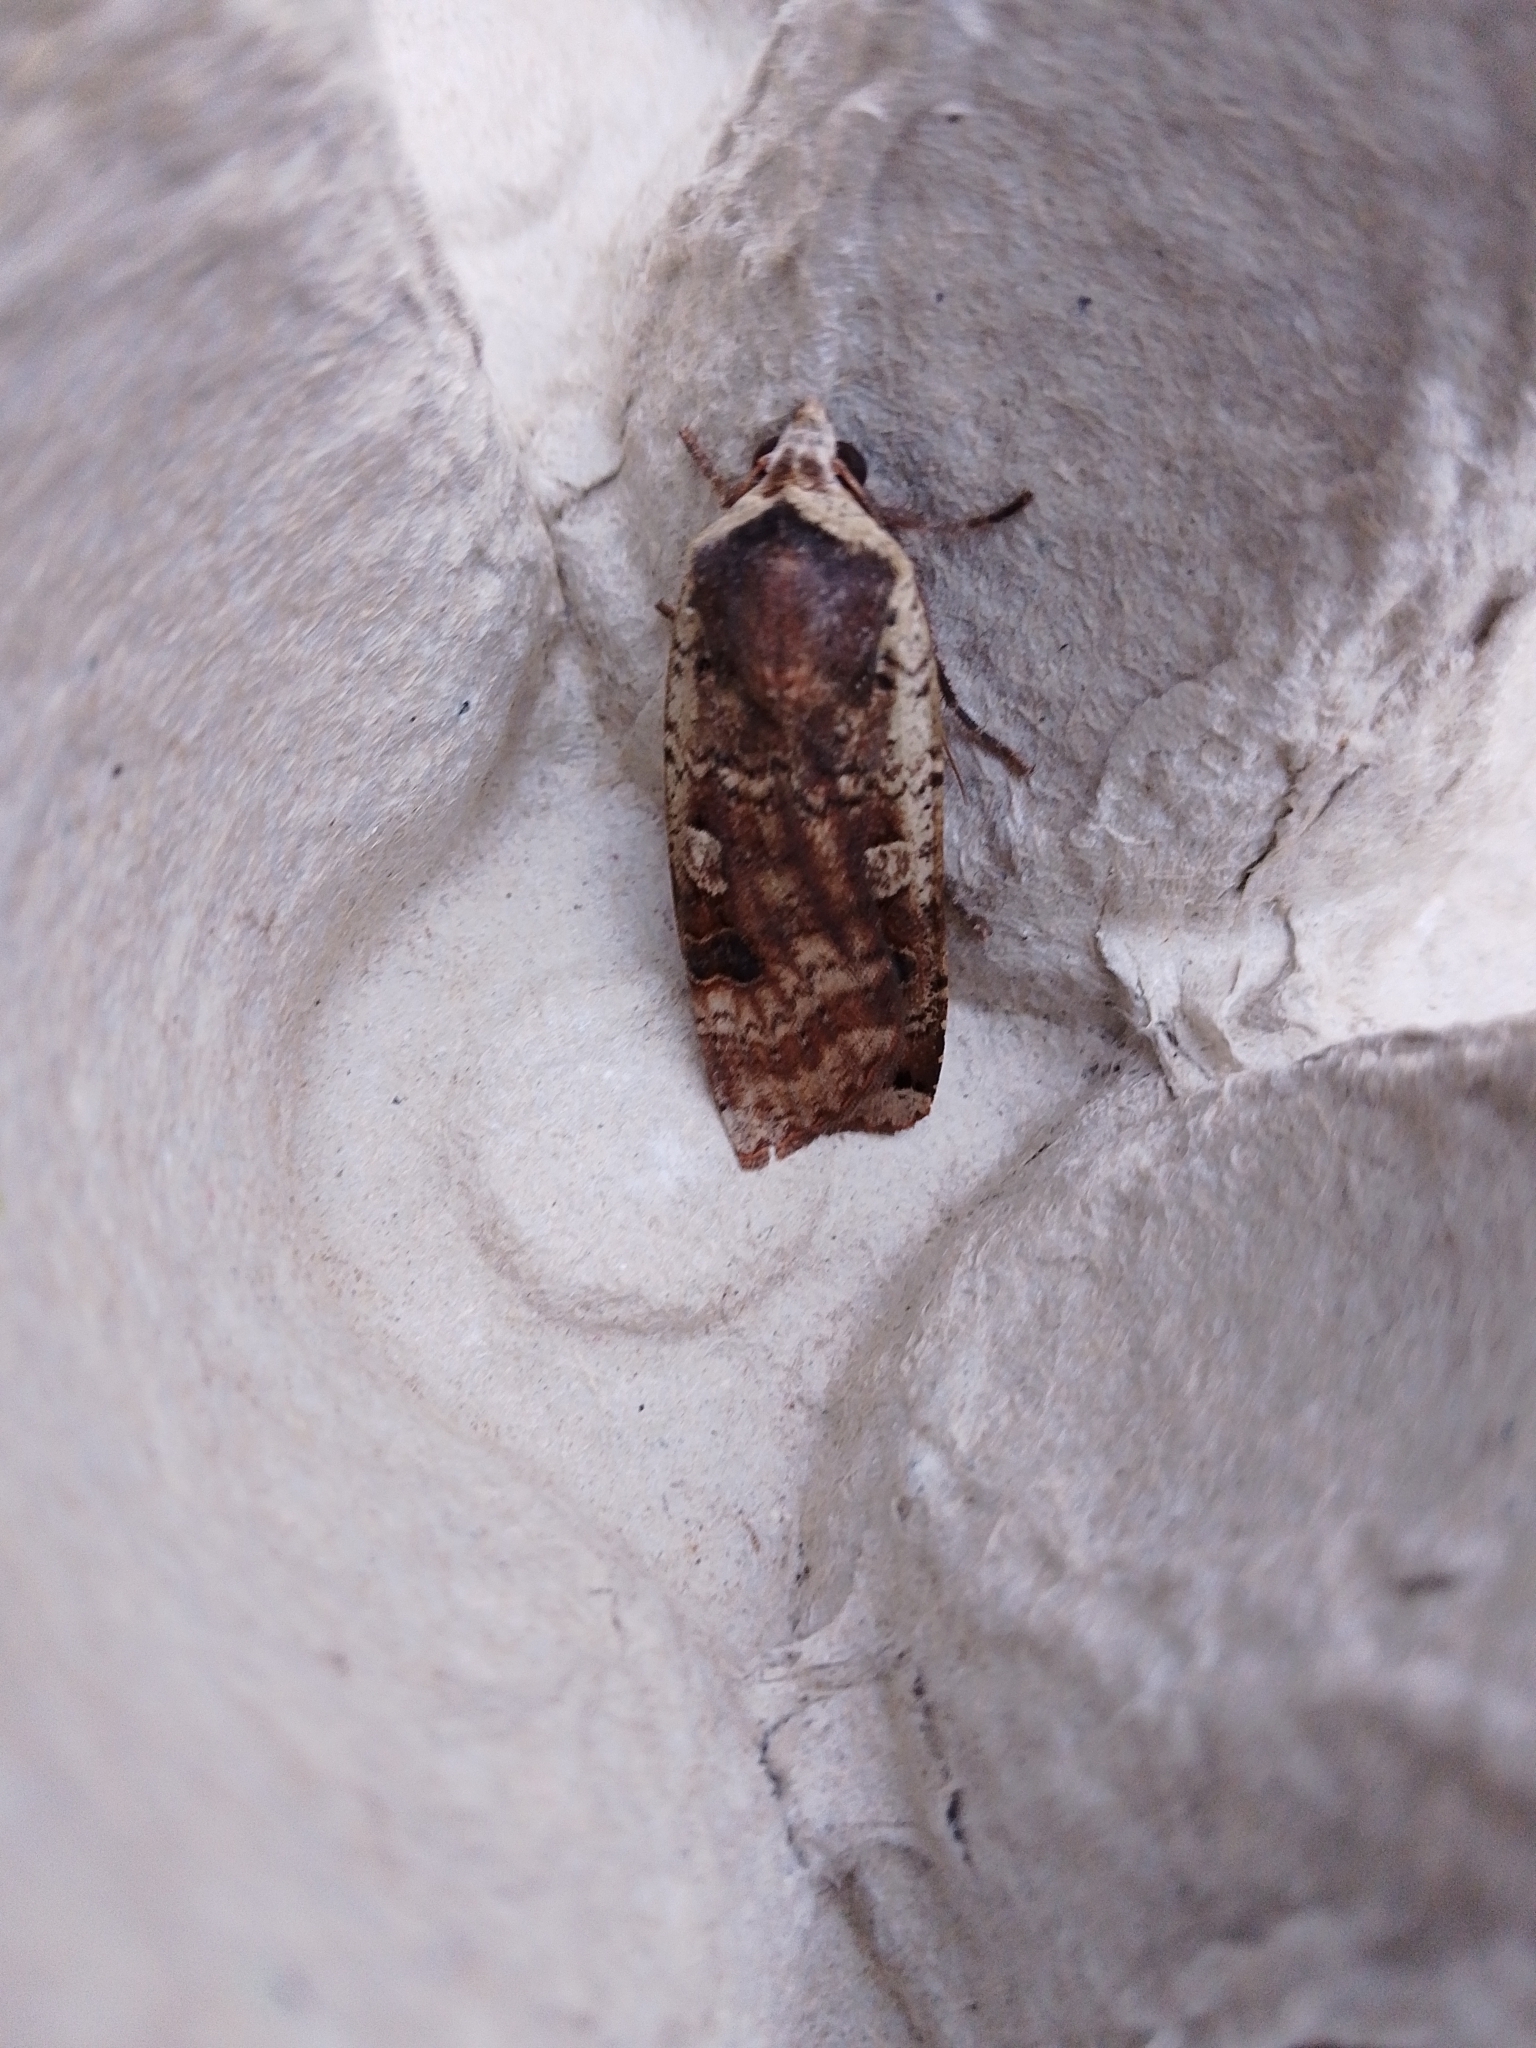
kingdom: Animalia
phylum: Arthropoda
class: Insecta
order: Lepidoptera
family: Noctuidae
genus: Noctua
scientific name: Noctua pronuba
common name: Large yellow underwing
